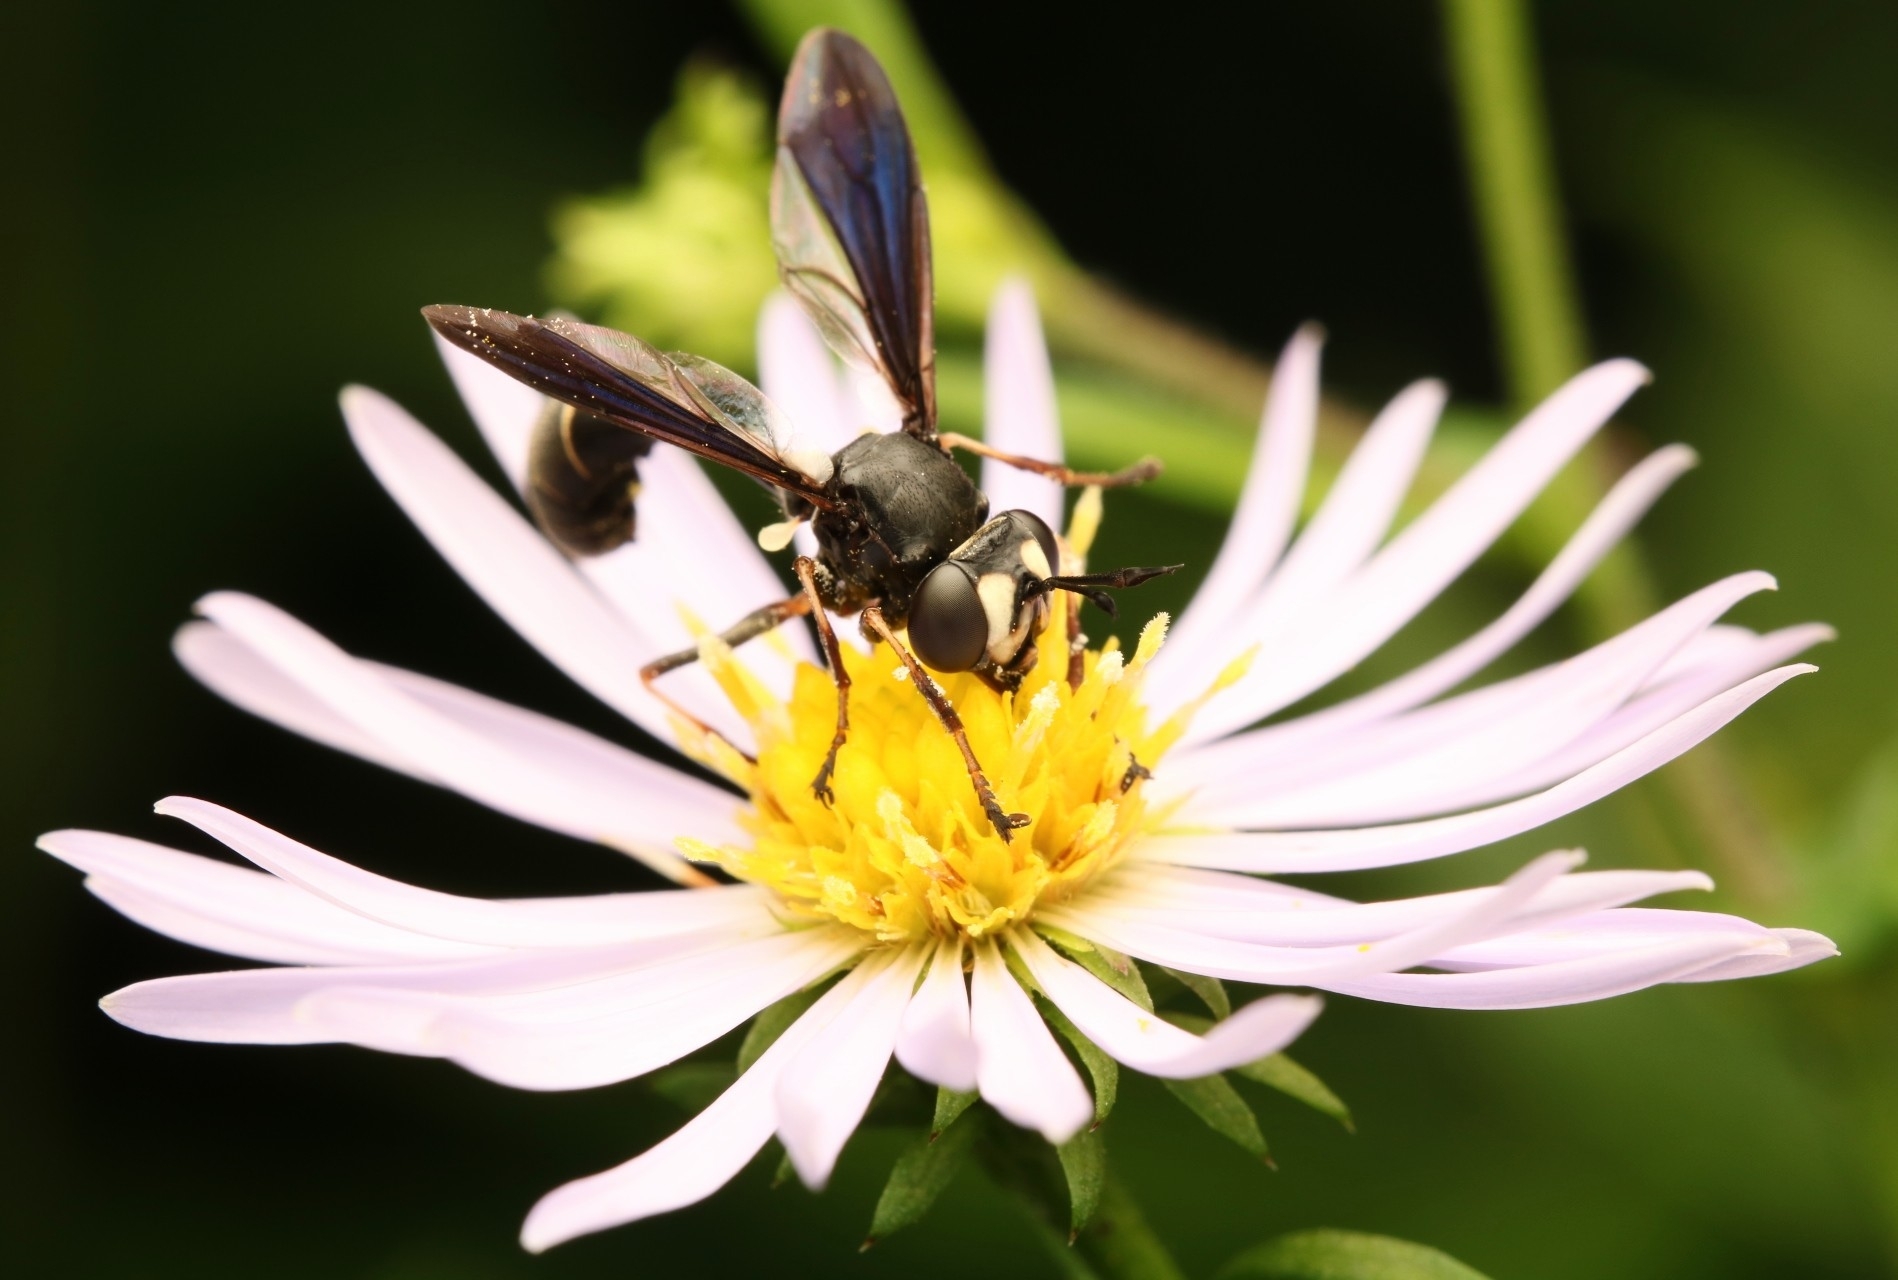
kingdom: Animalia
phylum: Arthropoda
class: Insecta
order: Diptera
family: Conopidae
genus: Physocephala
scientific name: Physocephala tibialis
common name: Common eastern physocephala
